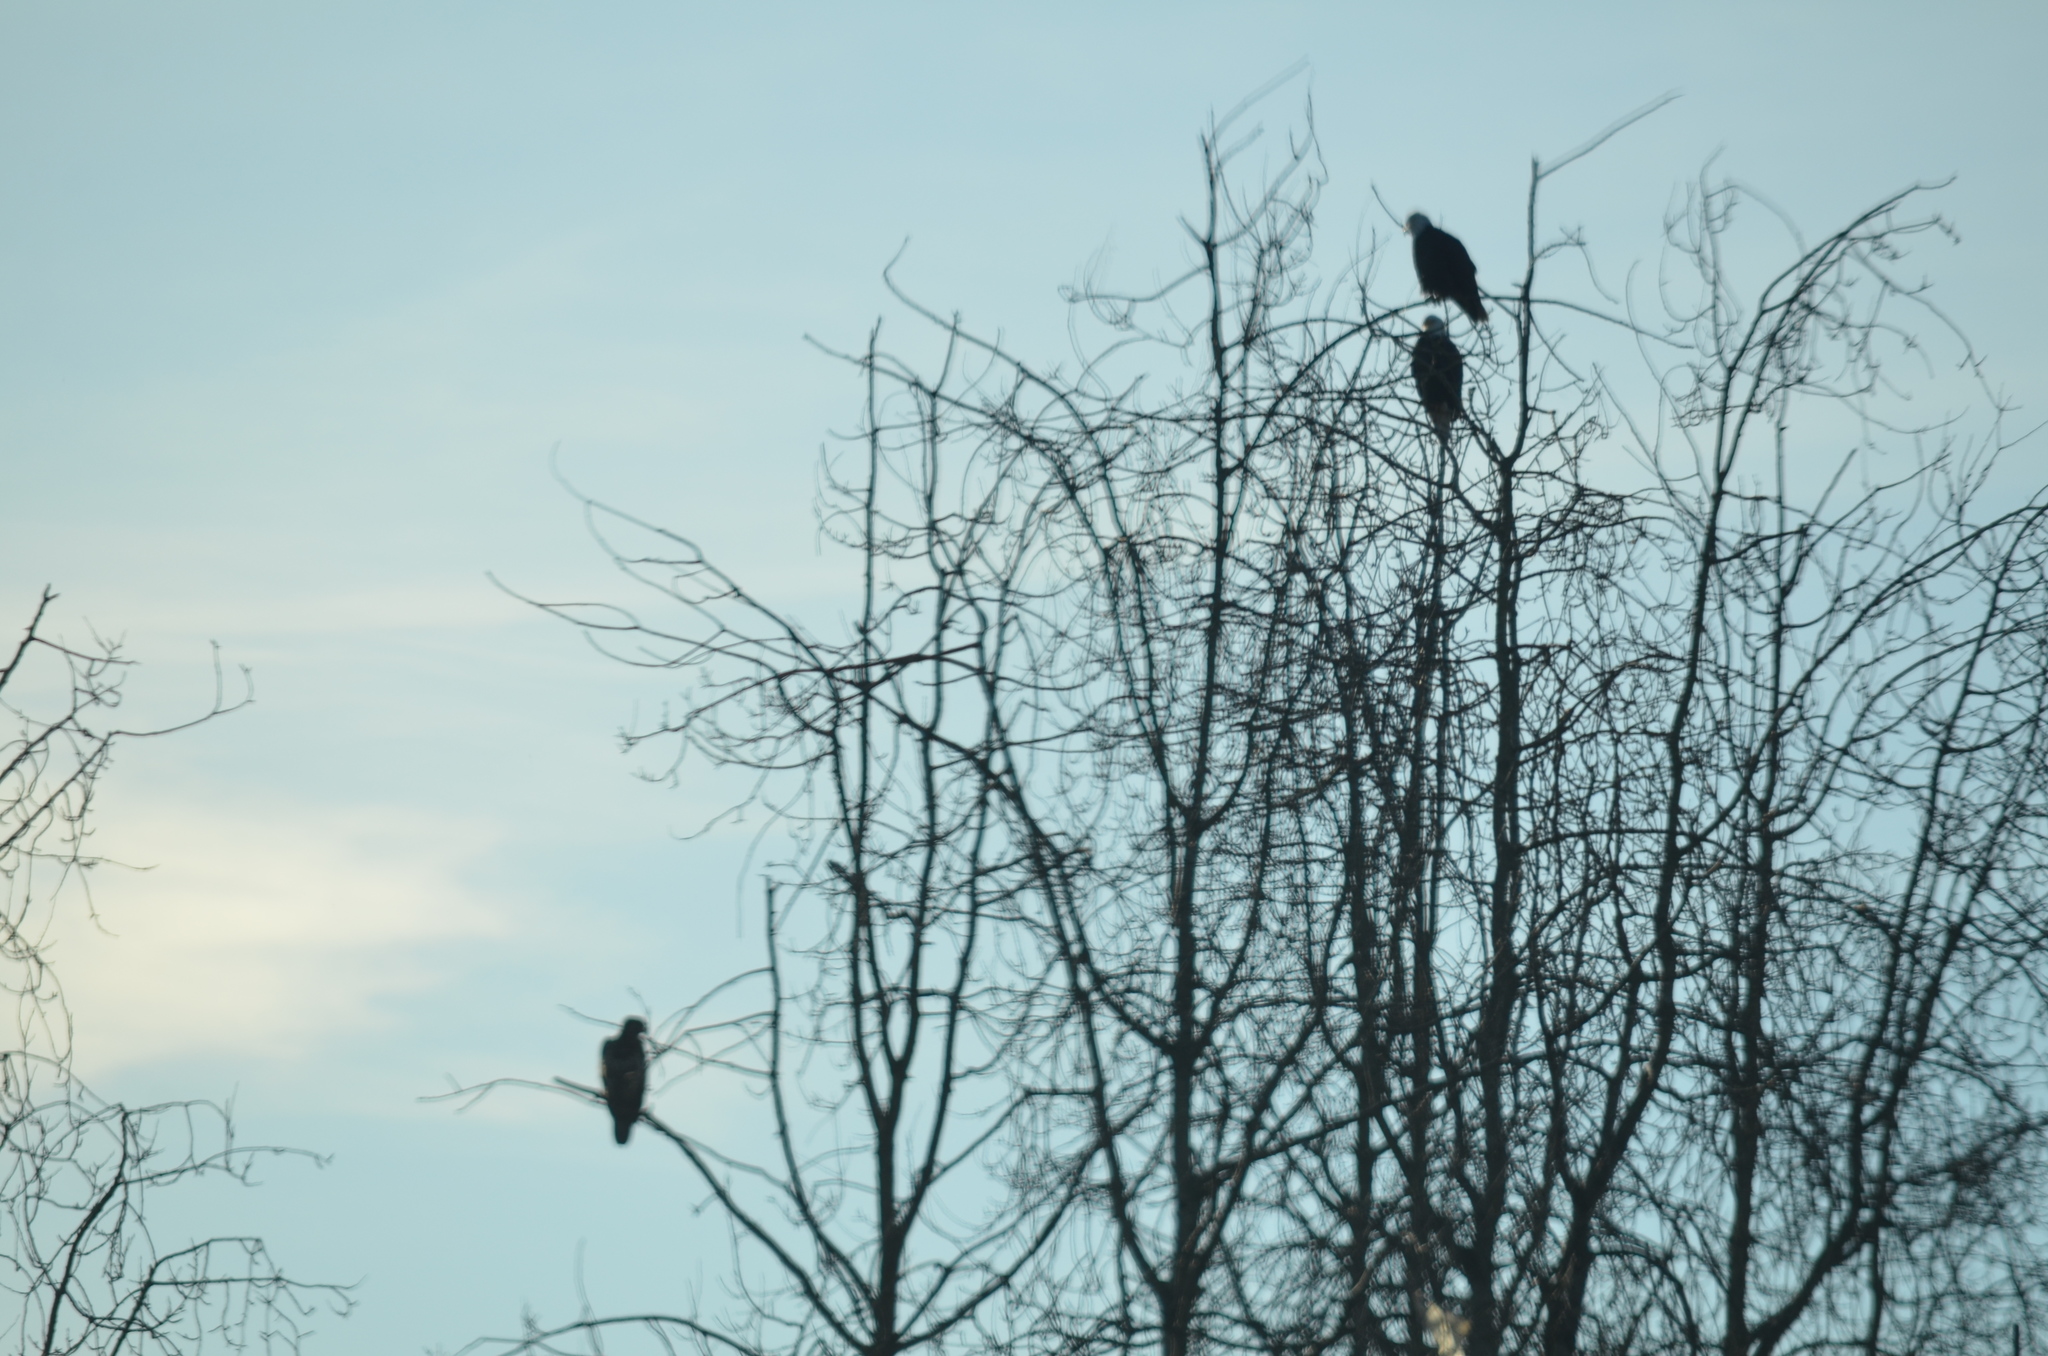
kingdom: Animalia
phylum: Chordata
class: Aves
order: Accipitriformes
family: Accipitridae
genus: Haliaeetus
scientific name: Haliaeetus leucocephalus
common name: Bald eagle
